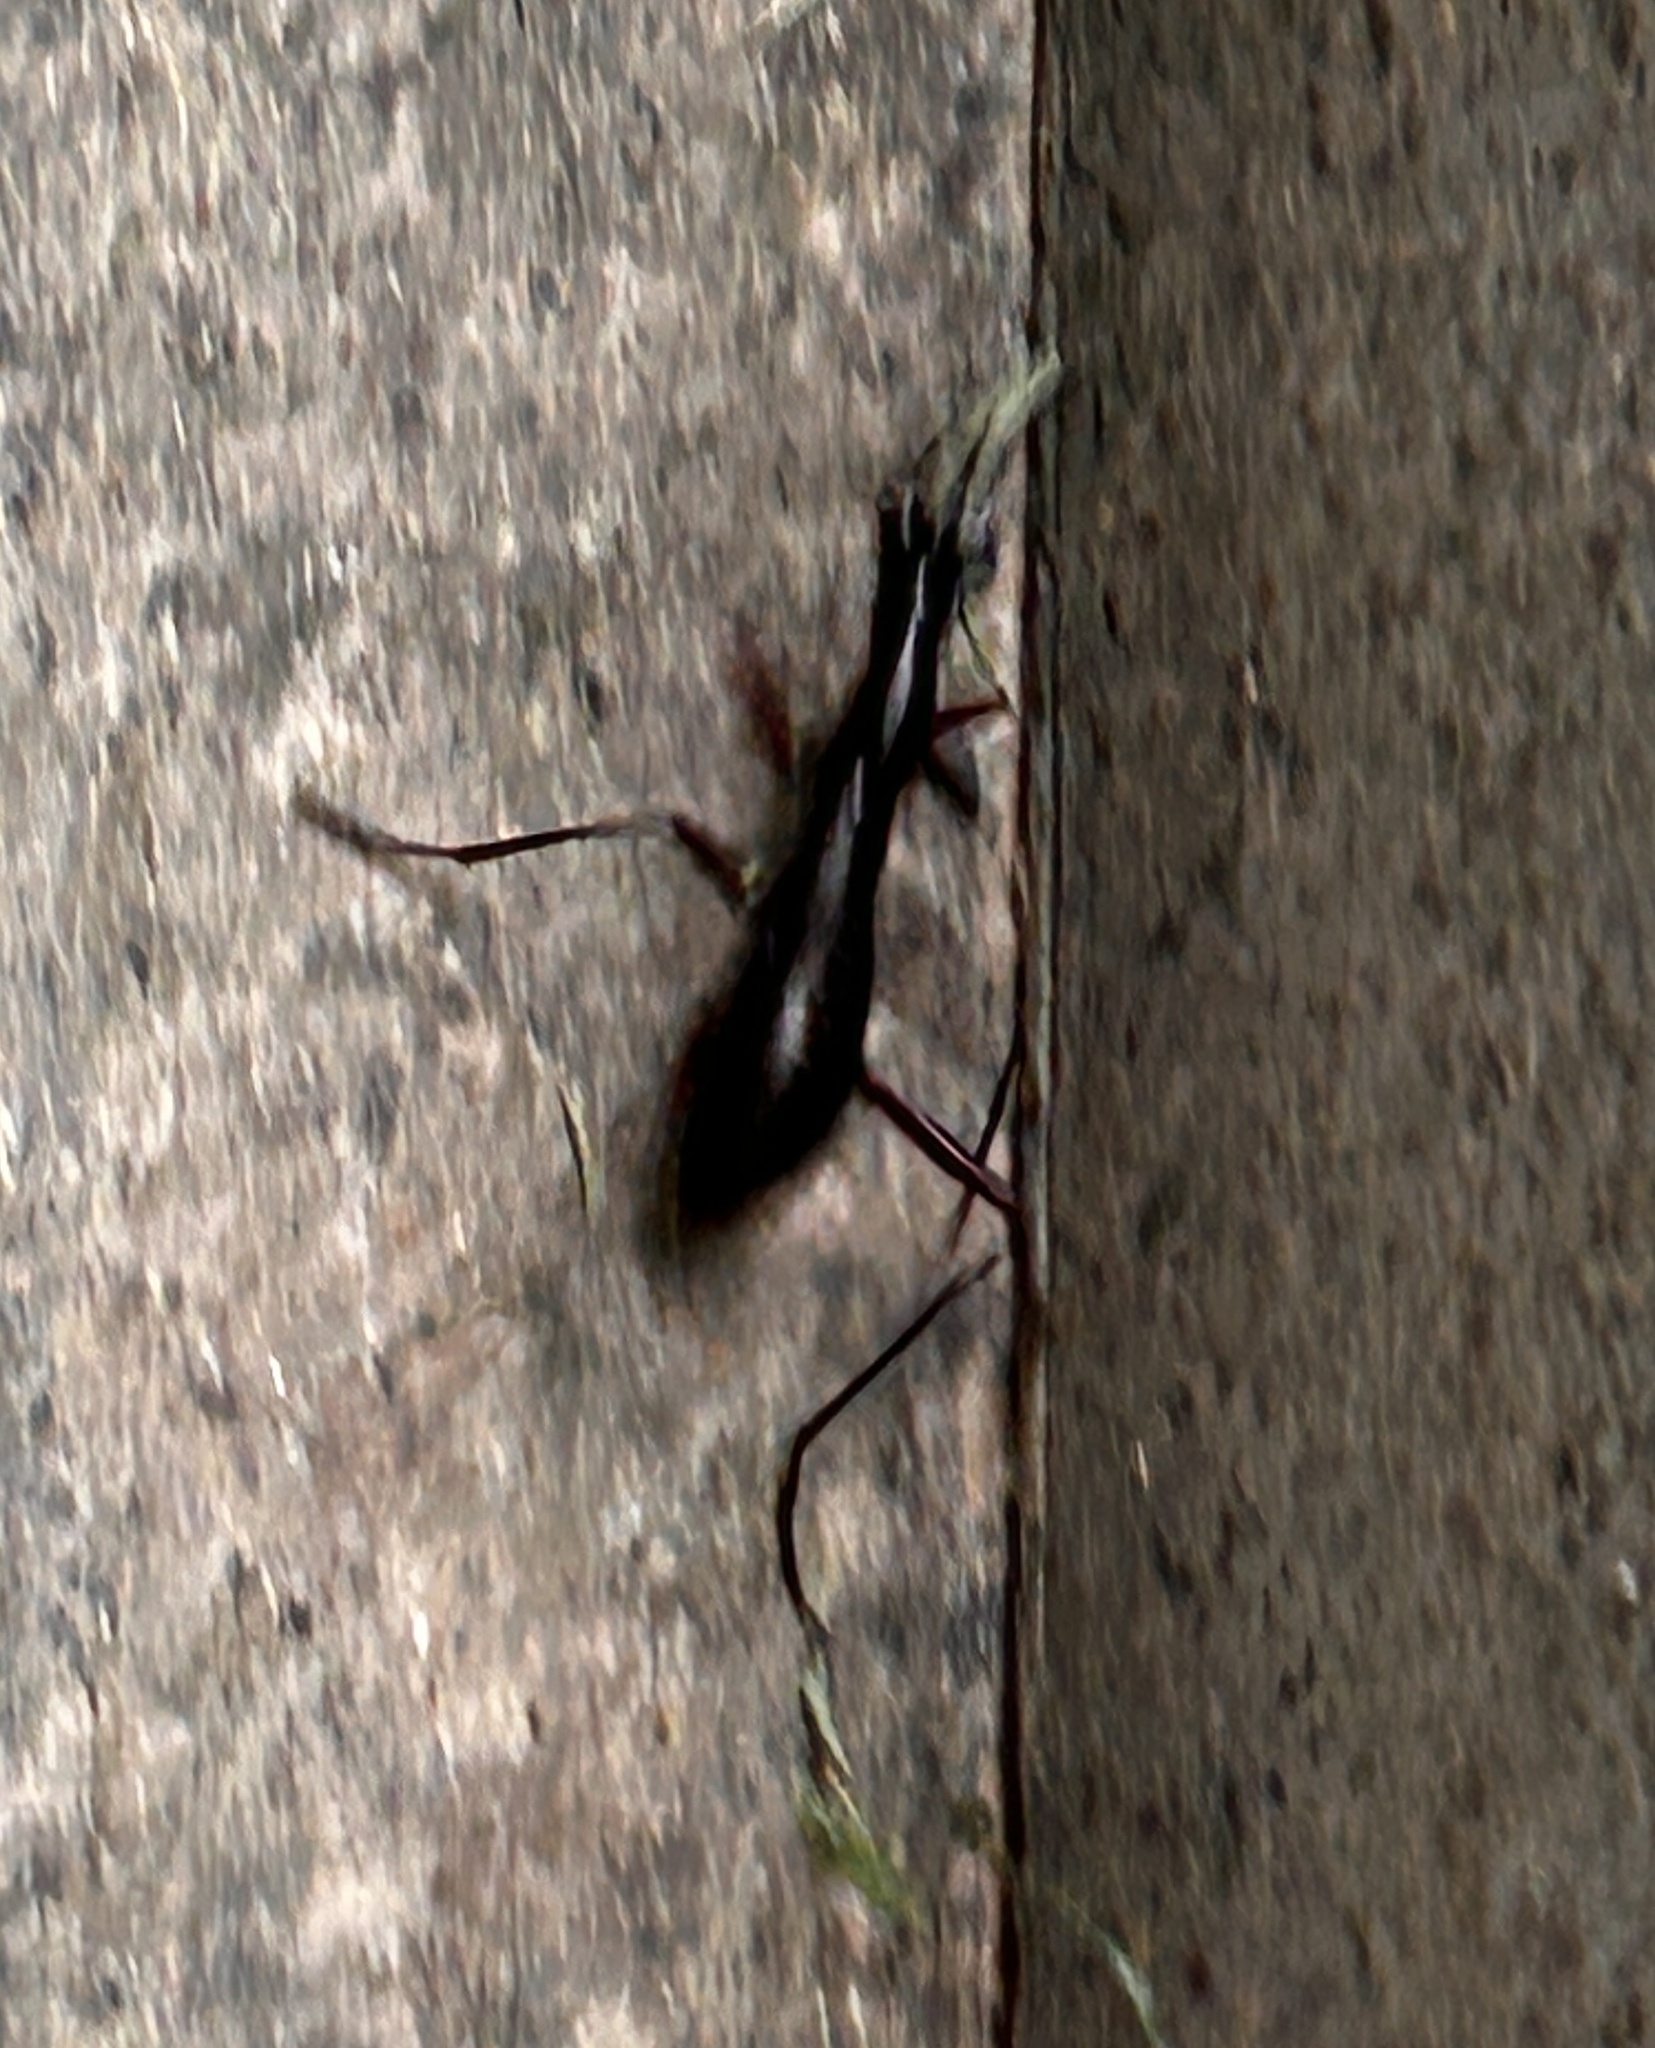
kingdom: Animalia
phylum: Arthropoda
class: Insecta
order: Coleoptera
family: Carabidae
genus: Tricondyla
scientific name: Tricondyla pulchripes
